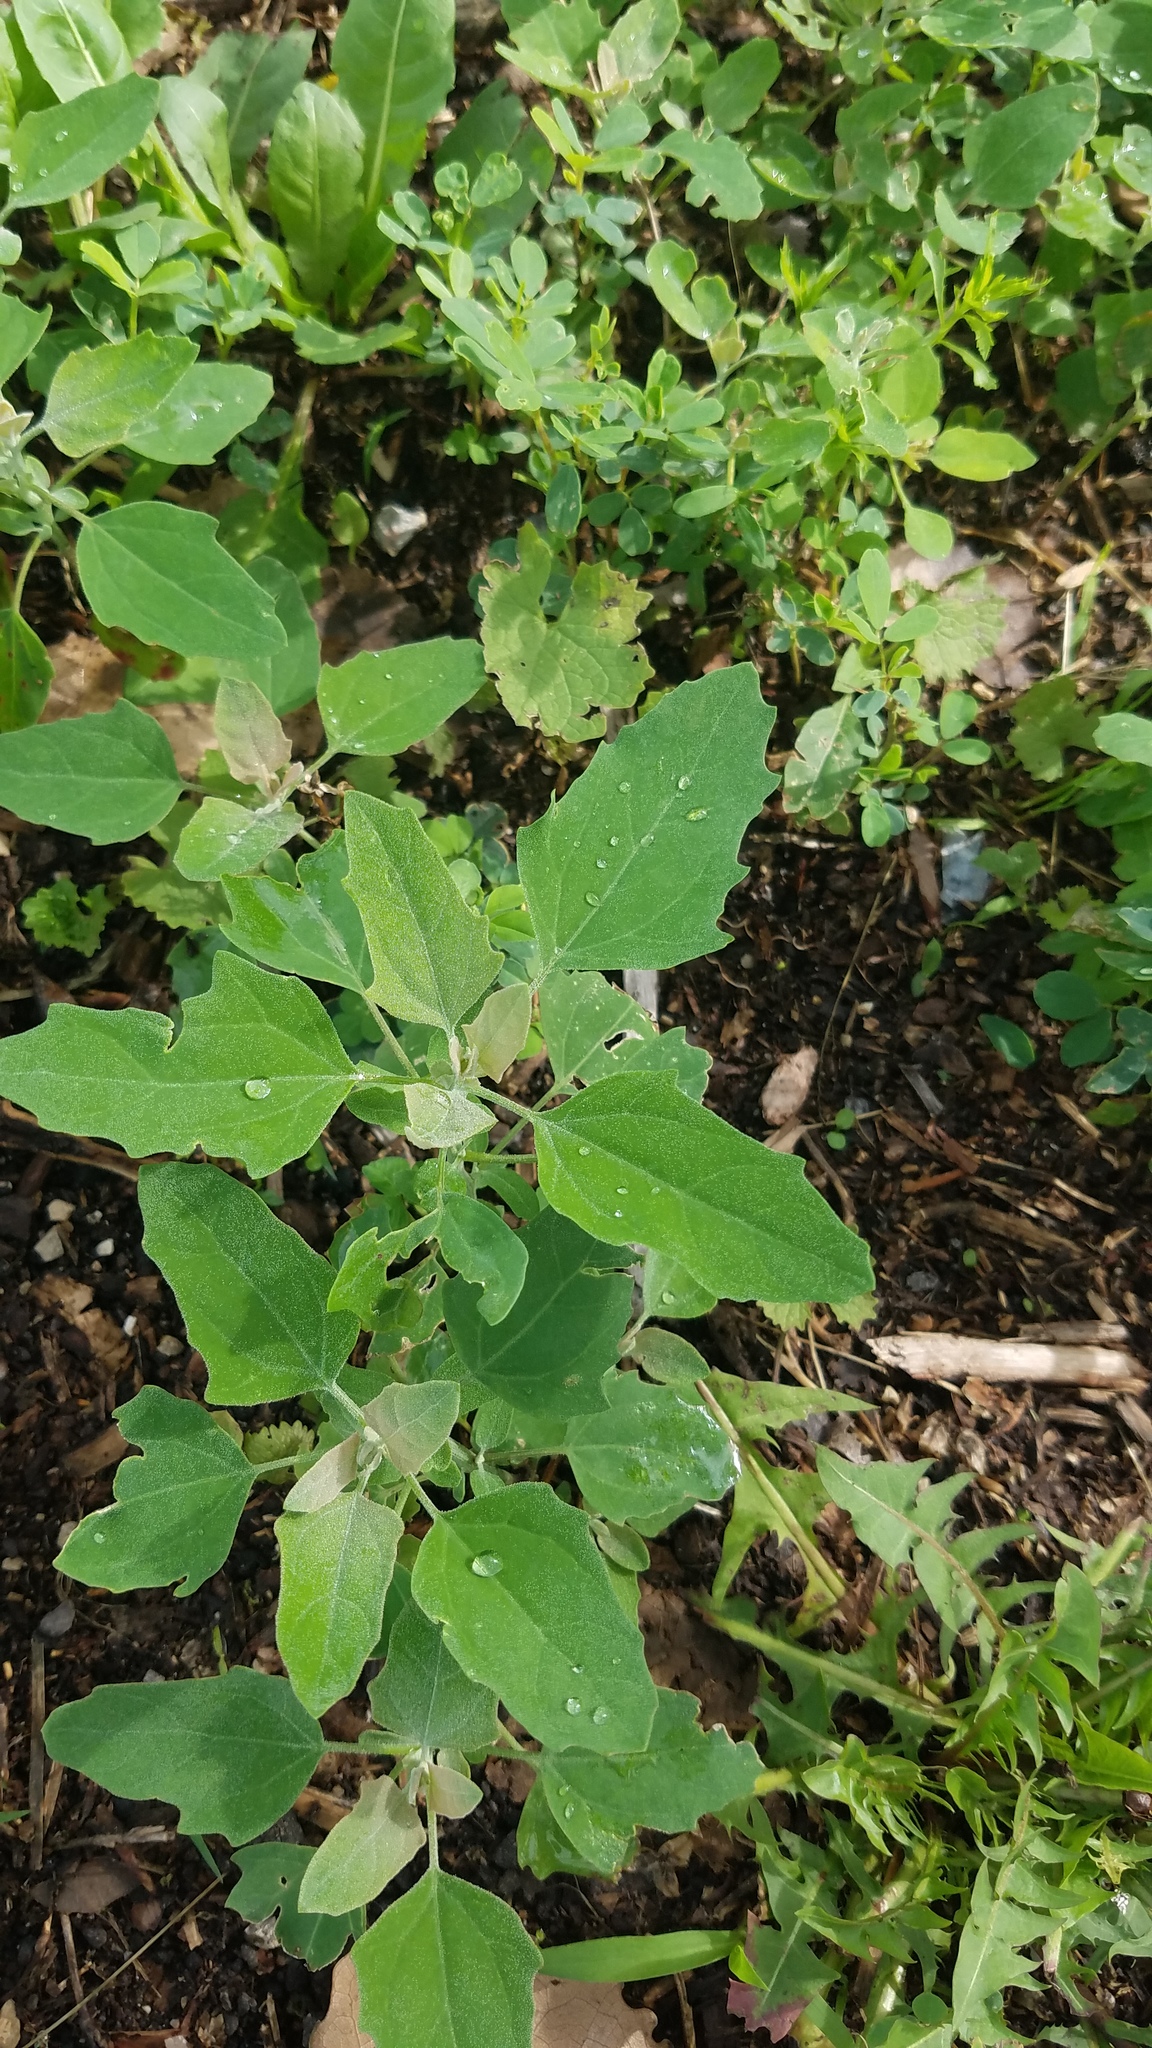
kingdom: Plantae
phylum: Tracheophyta
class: Magnoliopsida
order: Caryophyllales
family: Amaranthaceae
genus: Chenopodium
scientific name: Chenopodium album
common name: Fat-hen
